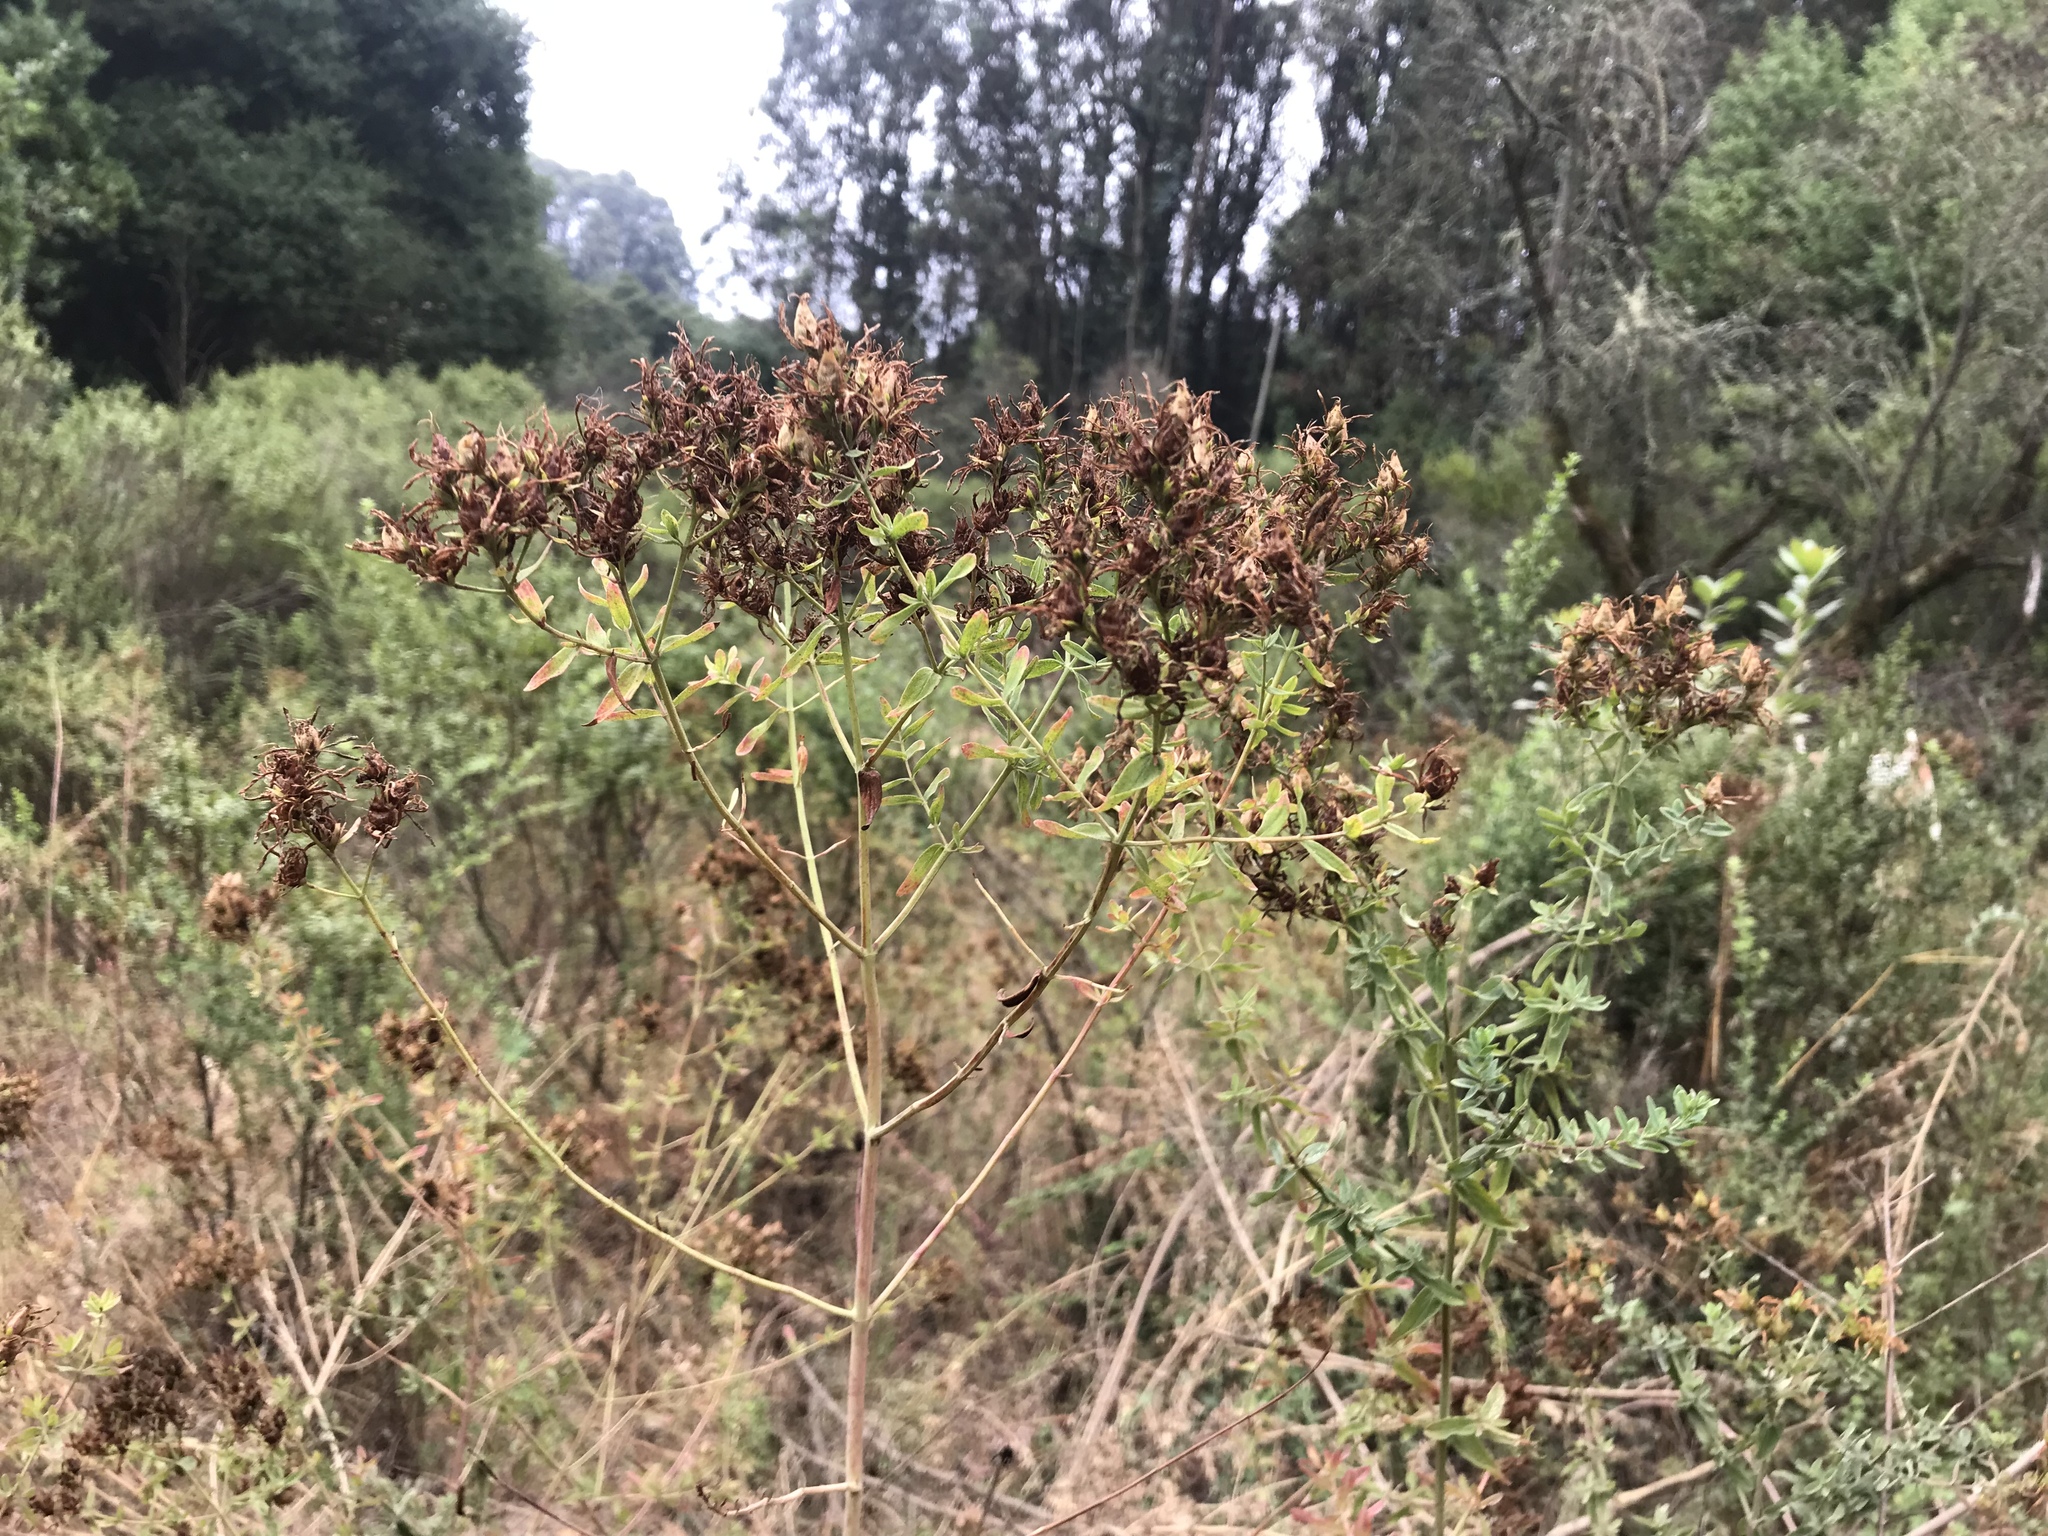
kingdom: Plantae
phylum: Tracheophyta
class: Magnoliopsida
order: Malpighiales
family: Hypericaceae
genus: Hypericum
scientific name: Hypericum perforatum
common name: Common st. johnswort
